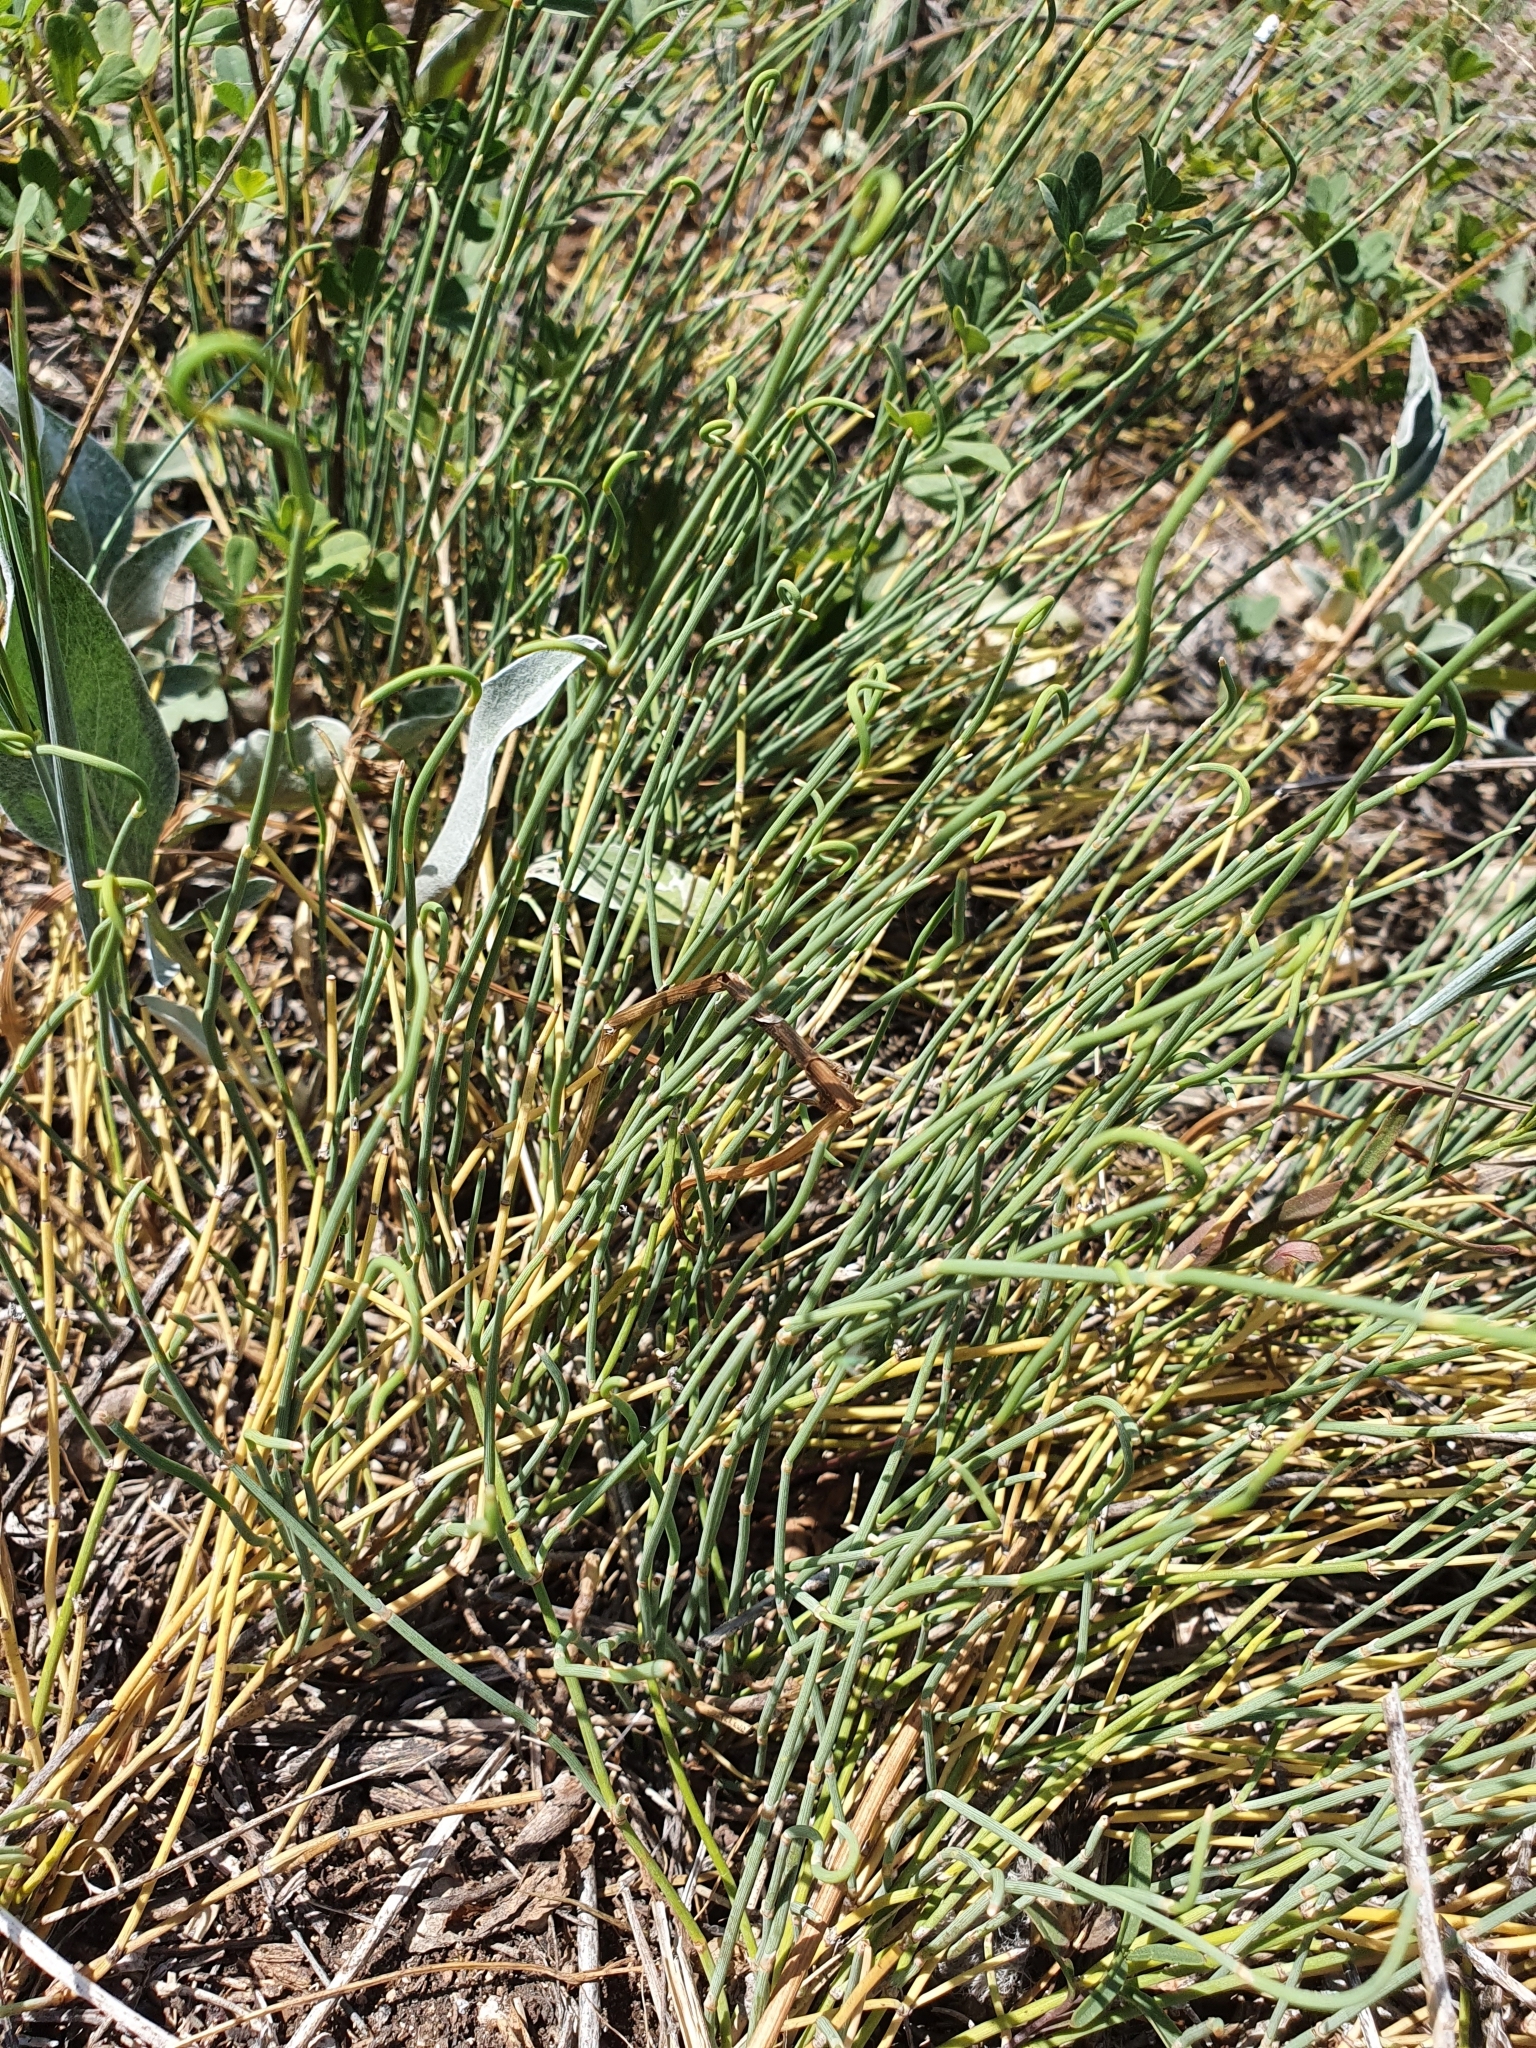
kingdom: Plantae
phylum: Tracheophyta
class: Gnetopsida
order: Ephedrales
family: Ephedraceae
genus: Ephedra
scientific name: Ephedra distachya
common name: Sea grape
